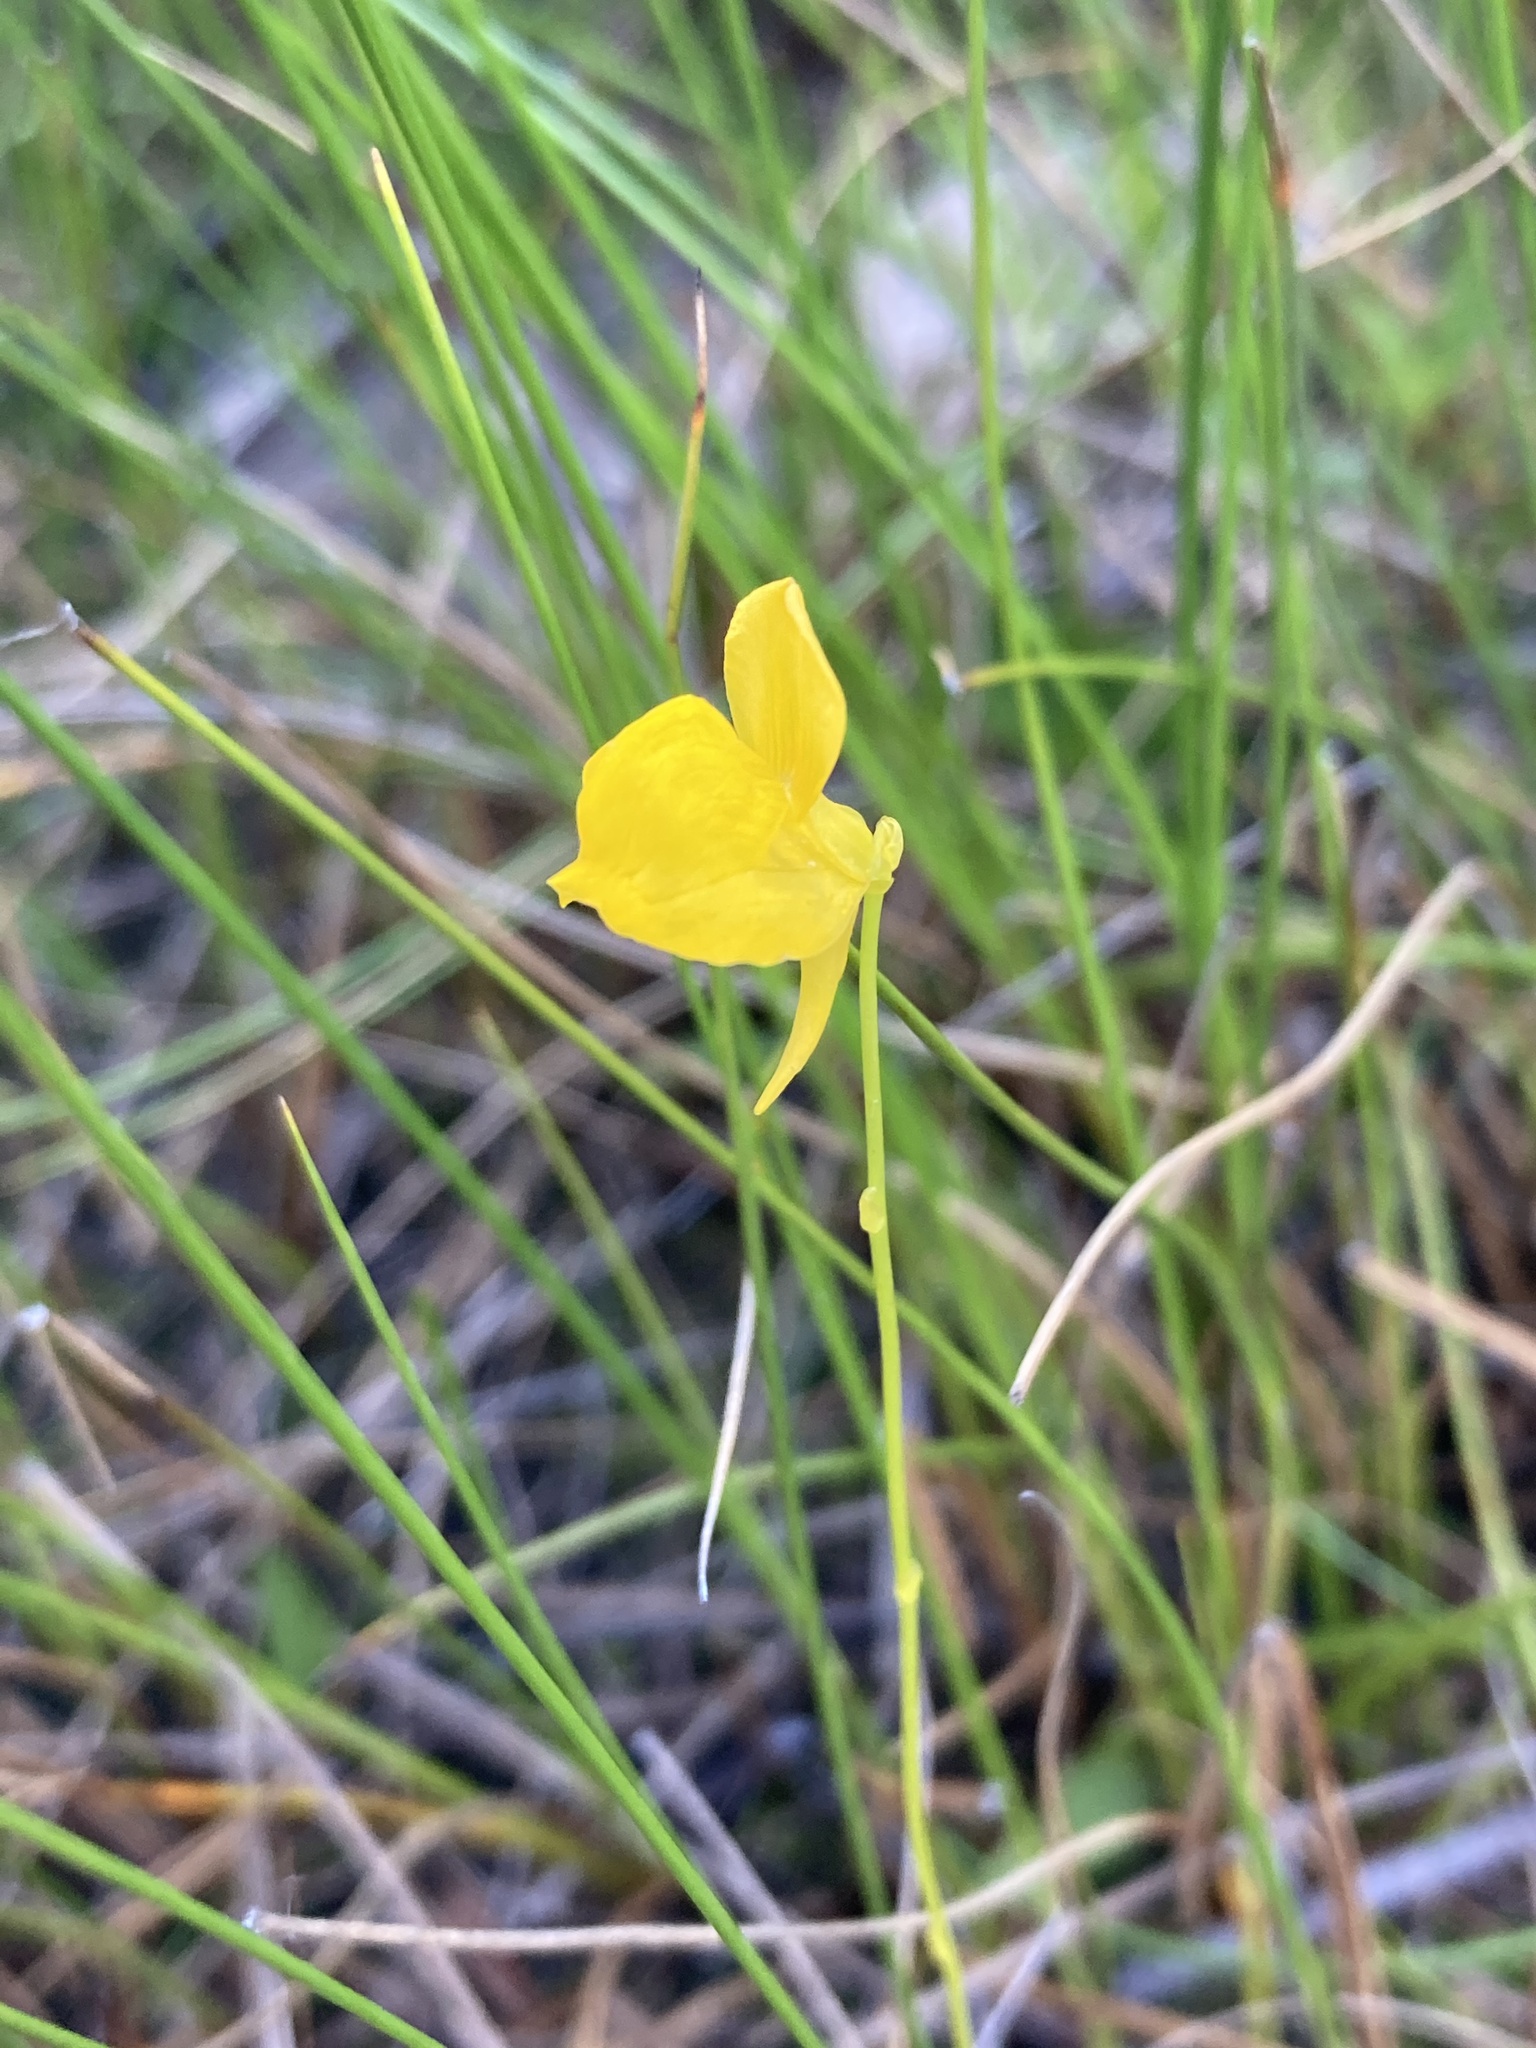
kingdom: Plantae
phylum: Tracheophyta
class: Magnoliopsida
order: Lamiales
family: Lentibulariaceae
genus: Utricularia
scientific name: Utricularia cornuta
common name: Horned bladderwort
